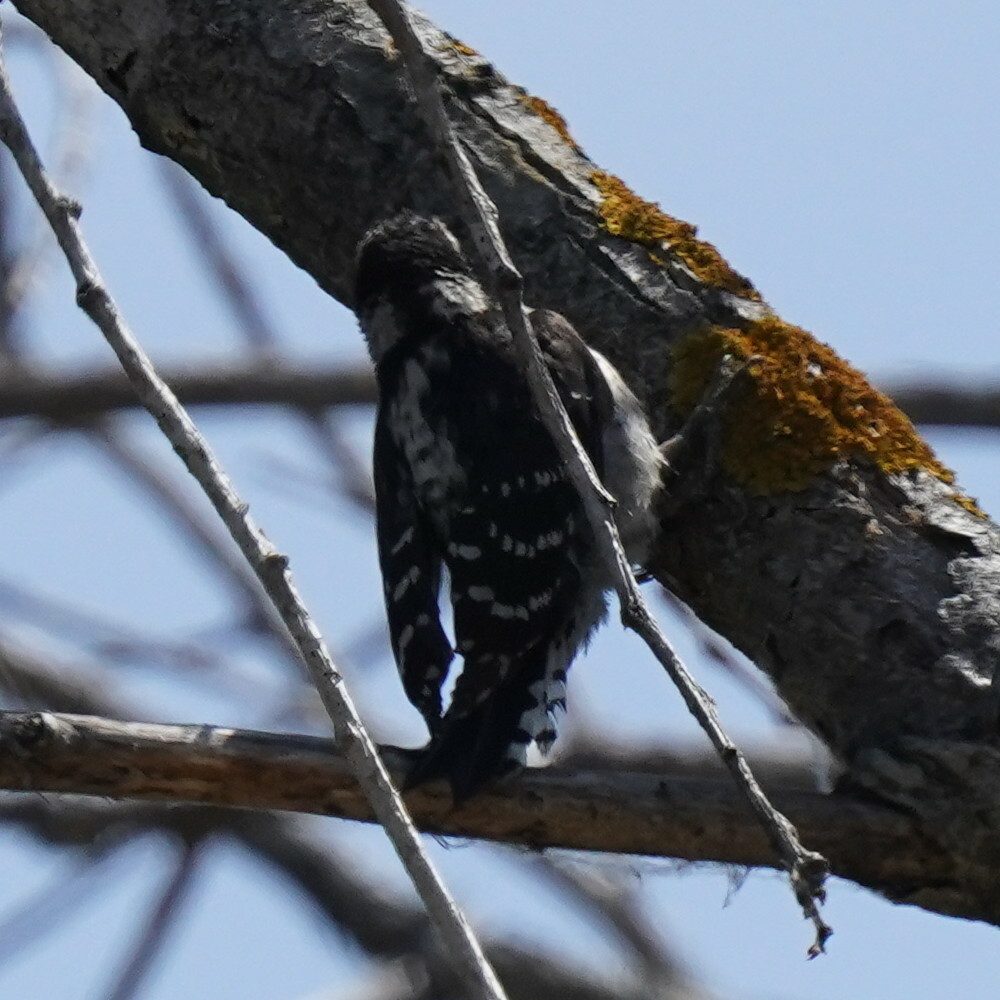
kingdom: Animalia
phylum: Chordata
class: Aves
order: Piciformes
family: Picidae
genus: Dryobates
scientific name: Dryobates pubescens
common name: Downy woodpecker
